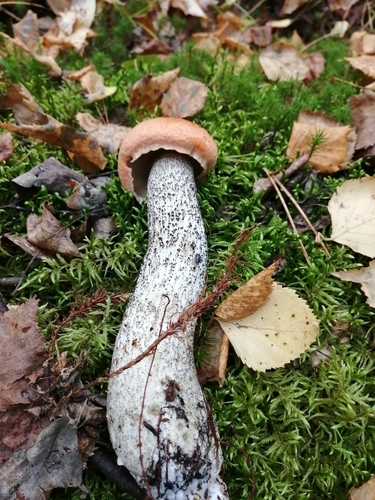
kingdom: Fungi
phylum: Basidiomycota
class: Agaricomycetes
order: Boletales
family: Boletaceae
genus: Leccinum
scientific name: Leccinum versipelle
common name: Orange birch bolete
